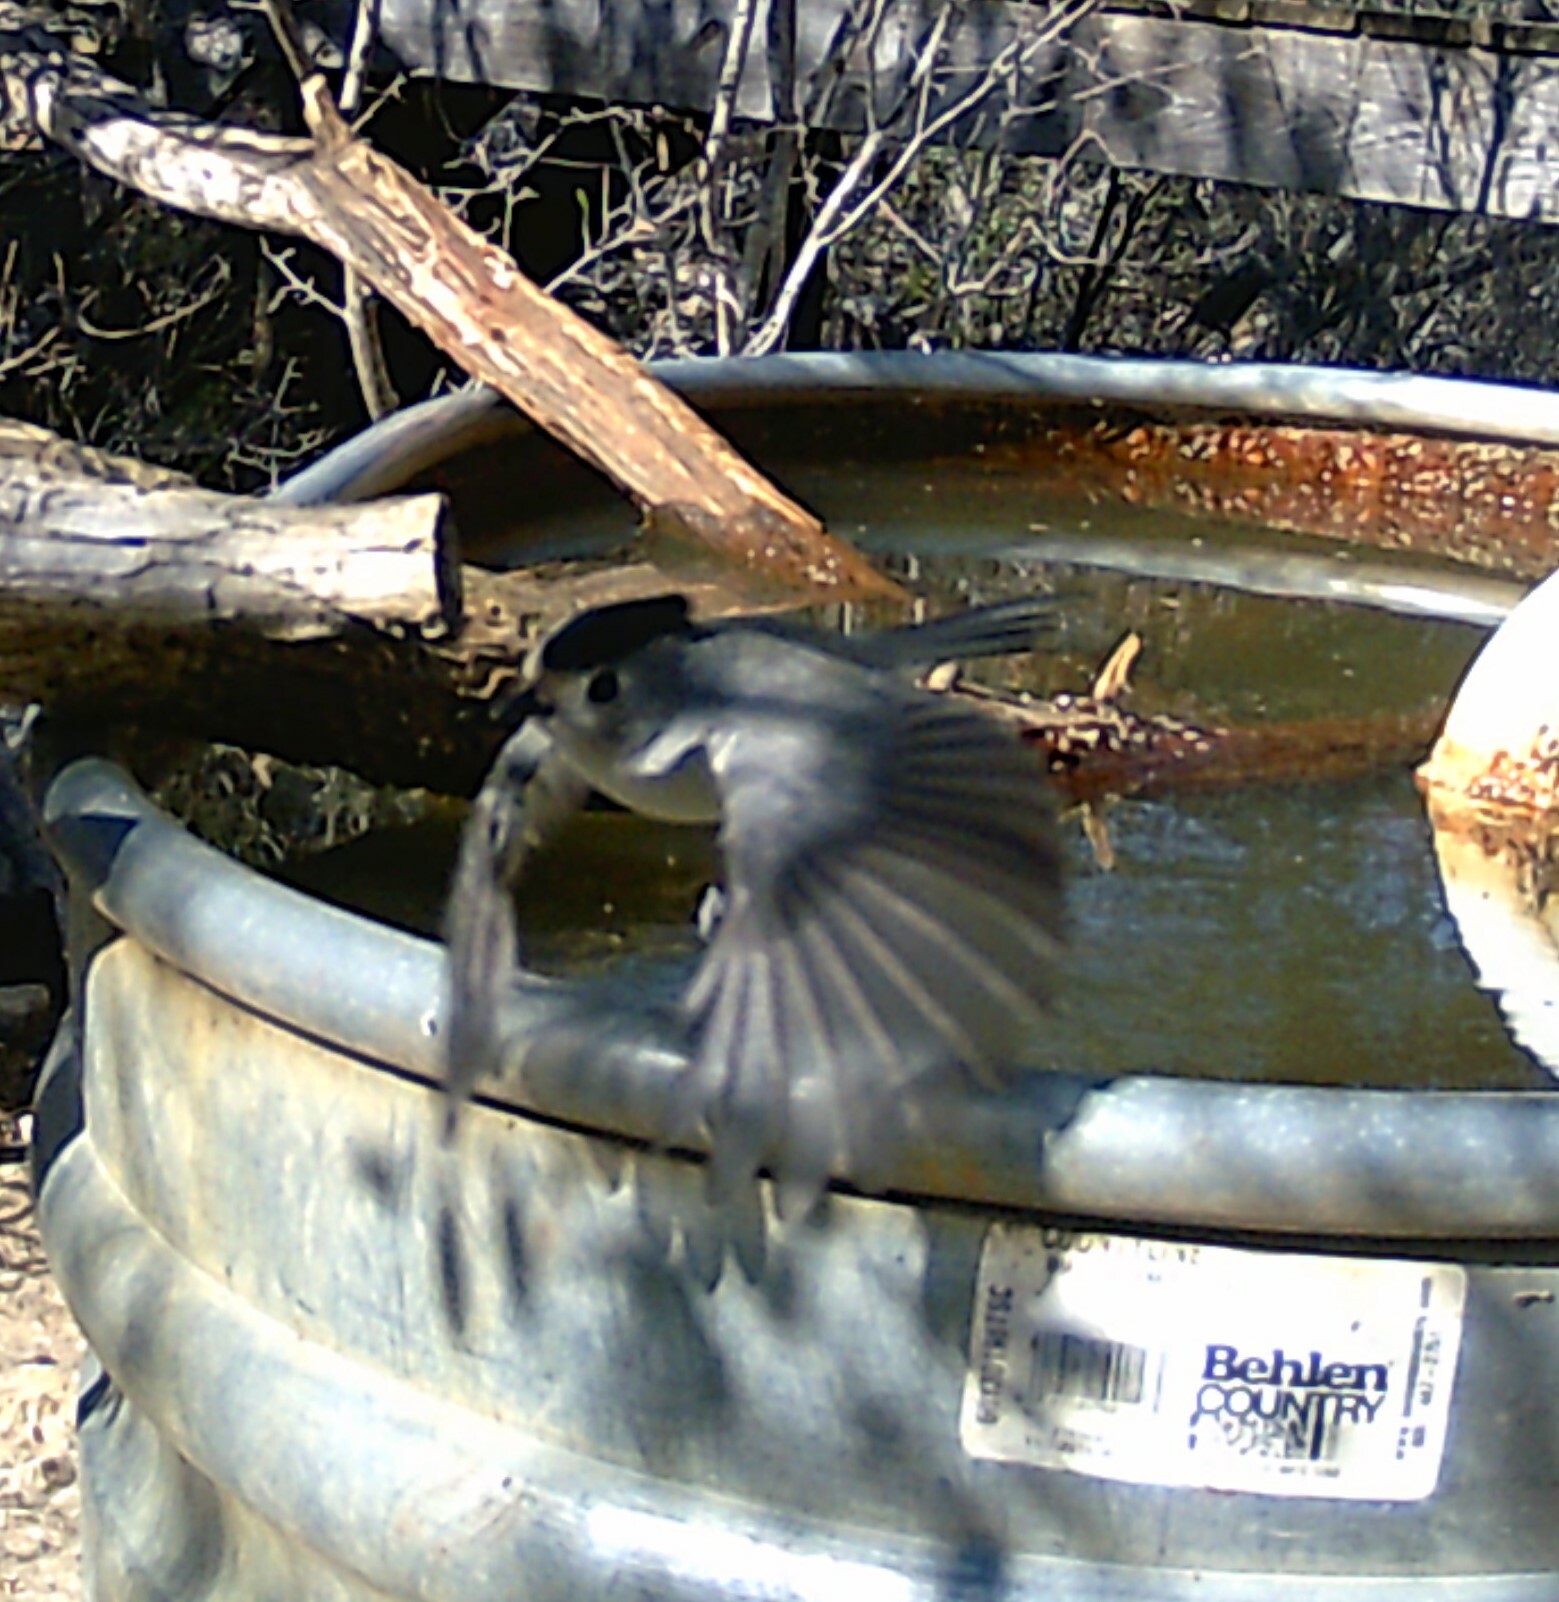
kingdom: Animalia
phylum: Chordata
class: Aves
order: Passeriformes
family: Paridae
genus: Baeolophus
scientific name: Baeolophus atricristatus
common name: Black-crested titmouse
